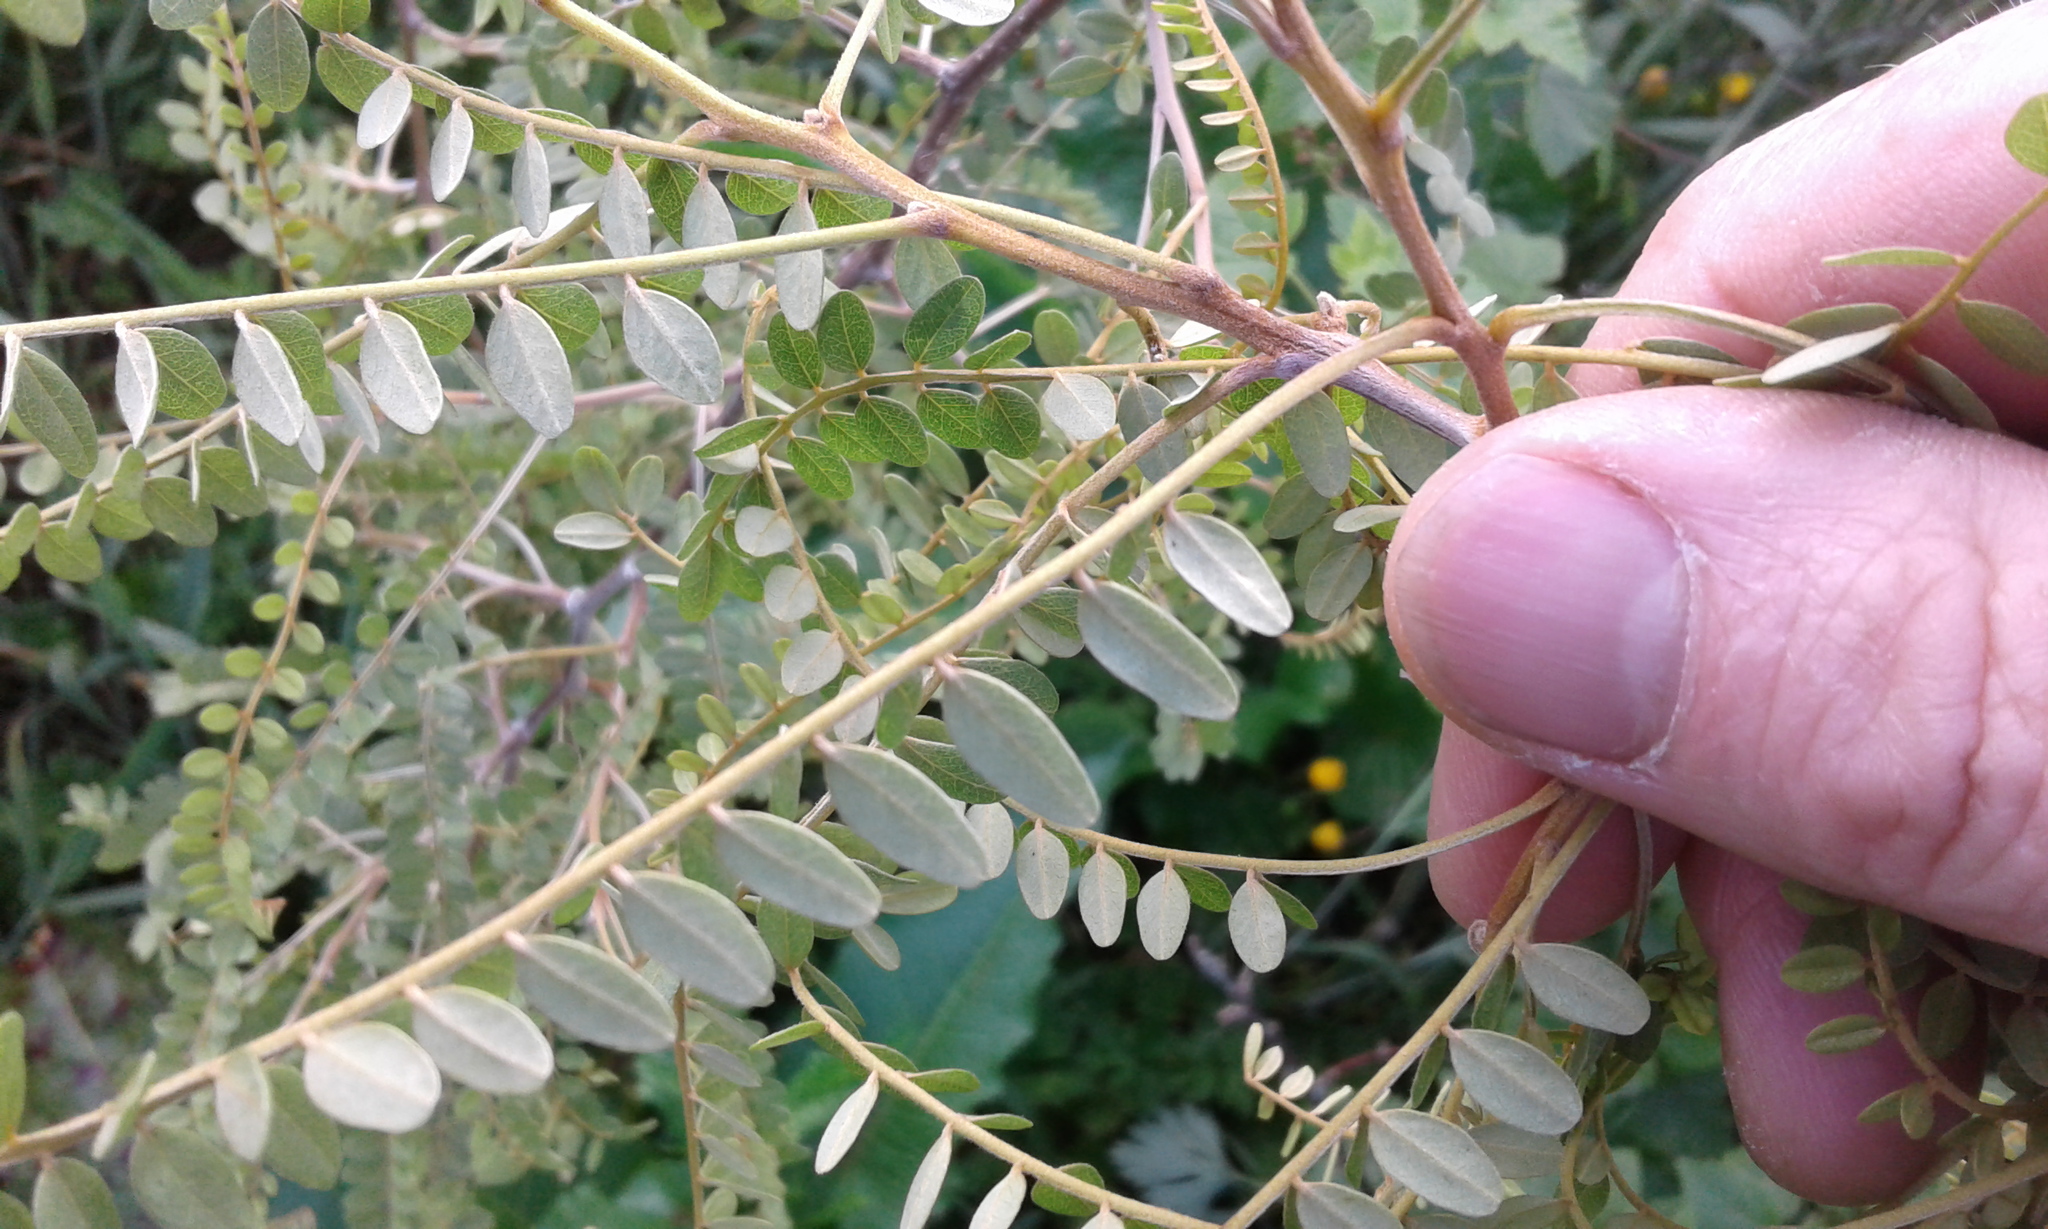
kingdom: Plantae
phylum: Tracheophyta
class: Magnoliopsida
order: Fabales
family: Fabaceae
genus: Sophora
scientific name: Sophora microphylla
